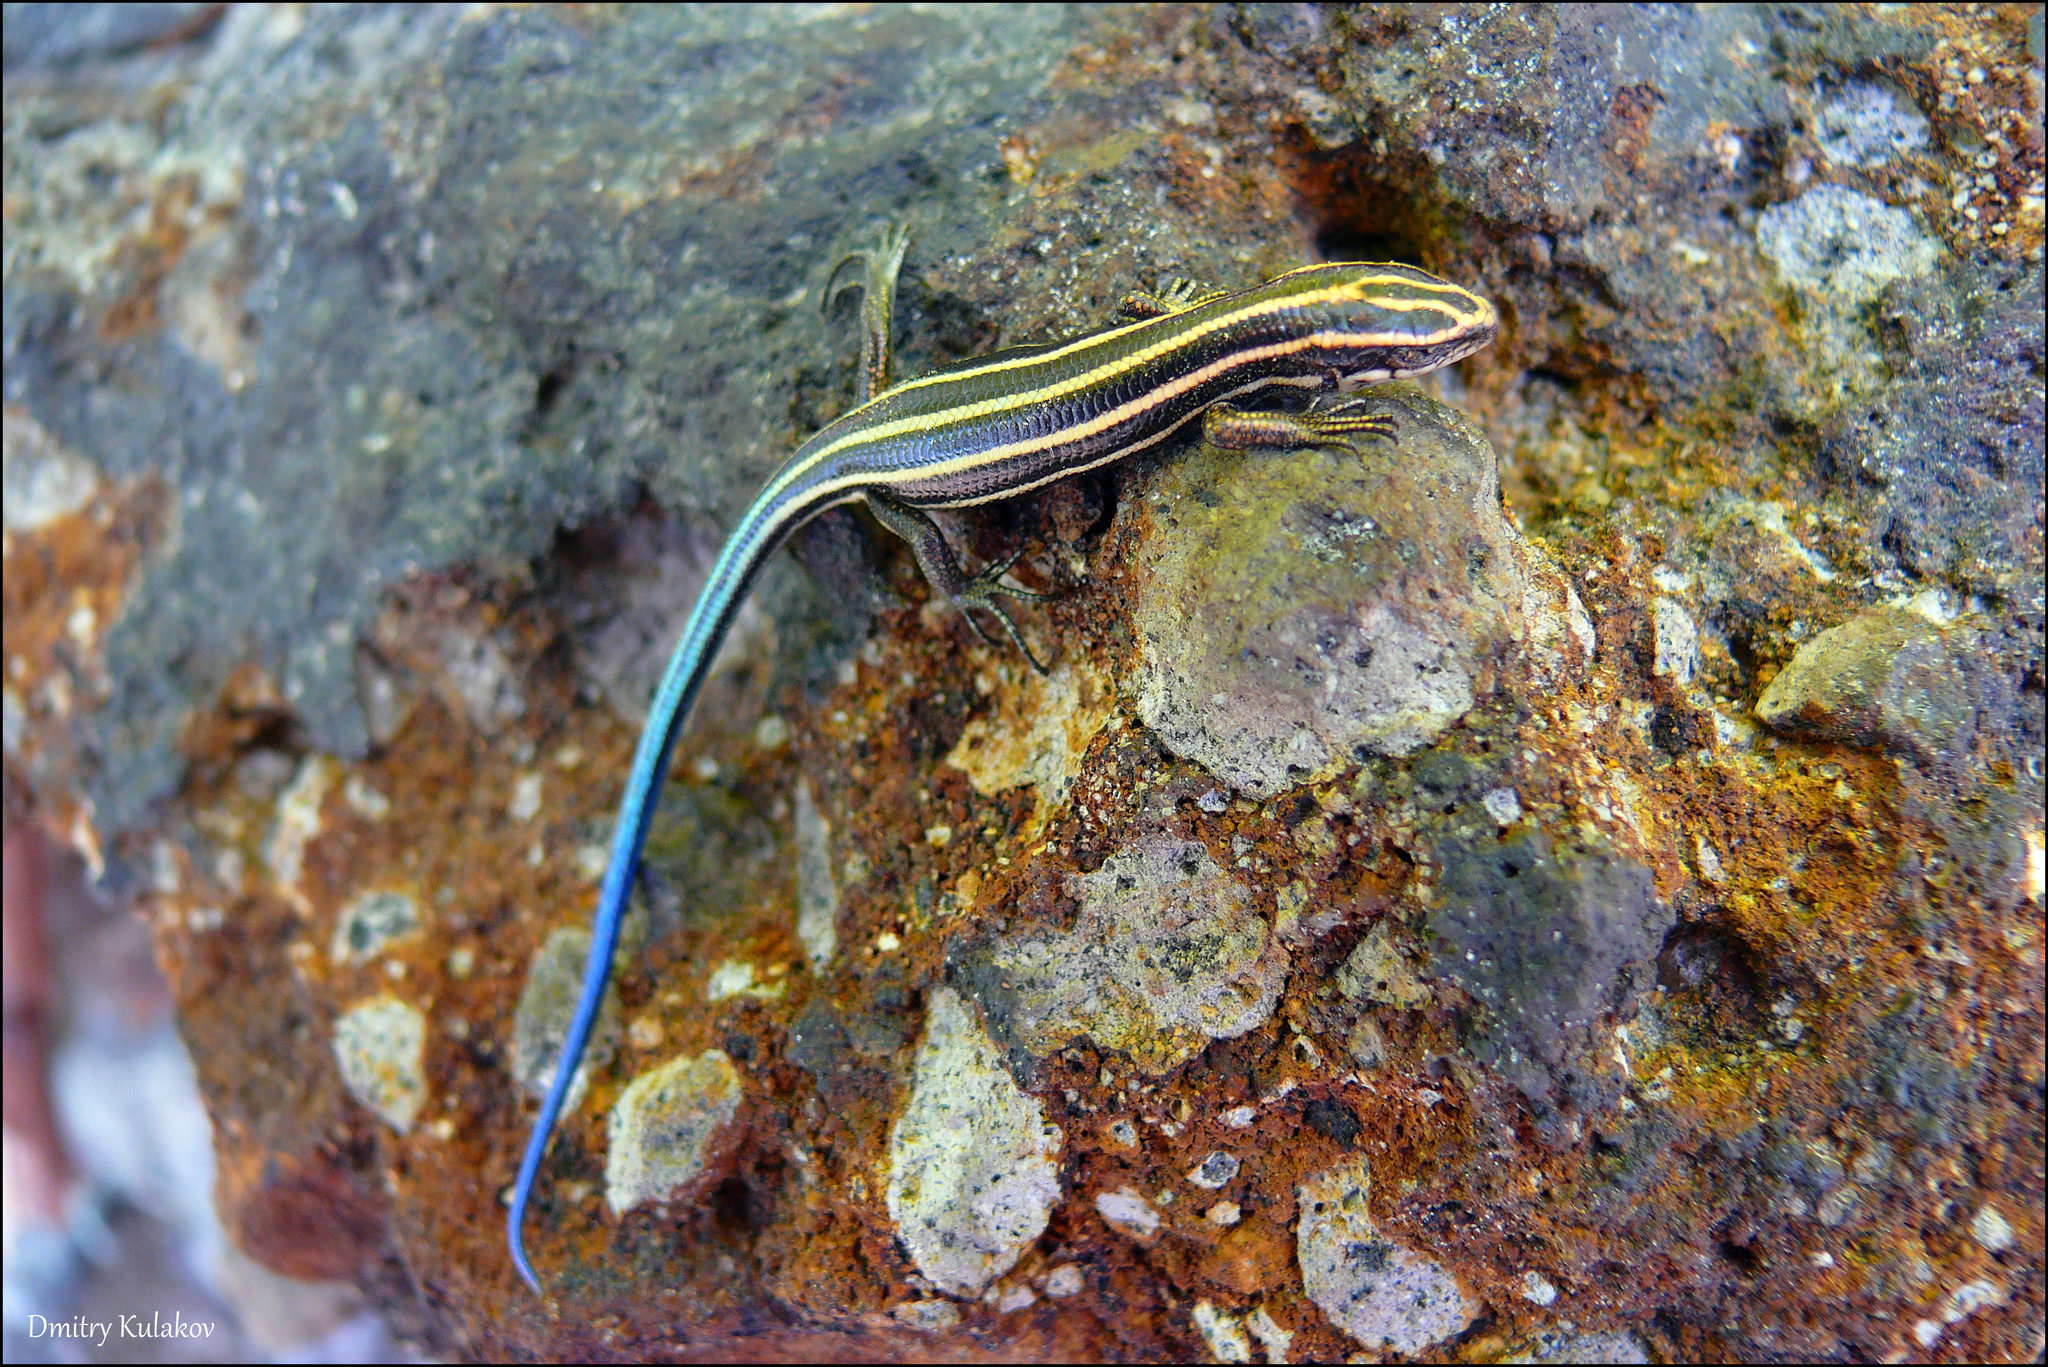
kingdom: Animalia
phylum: Chordata
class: Squamata
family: Scincidae
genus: Plestiodon
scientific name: Plestiodon finitimus
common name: Far eastern skink
